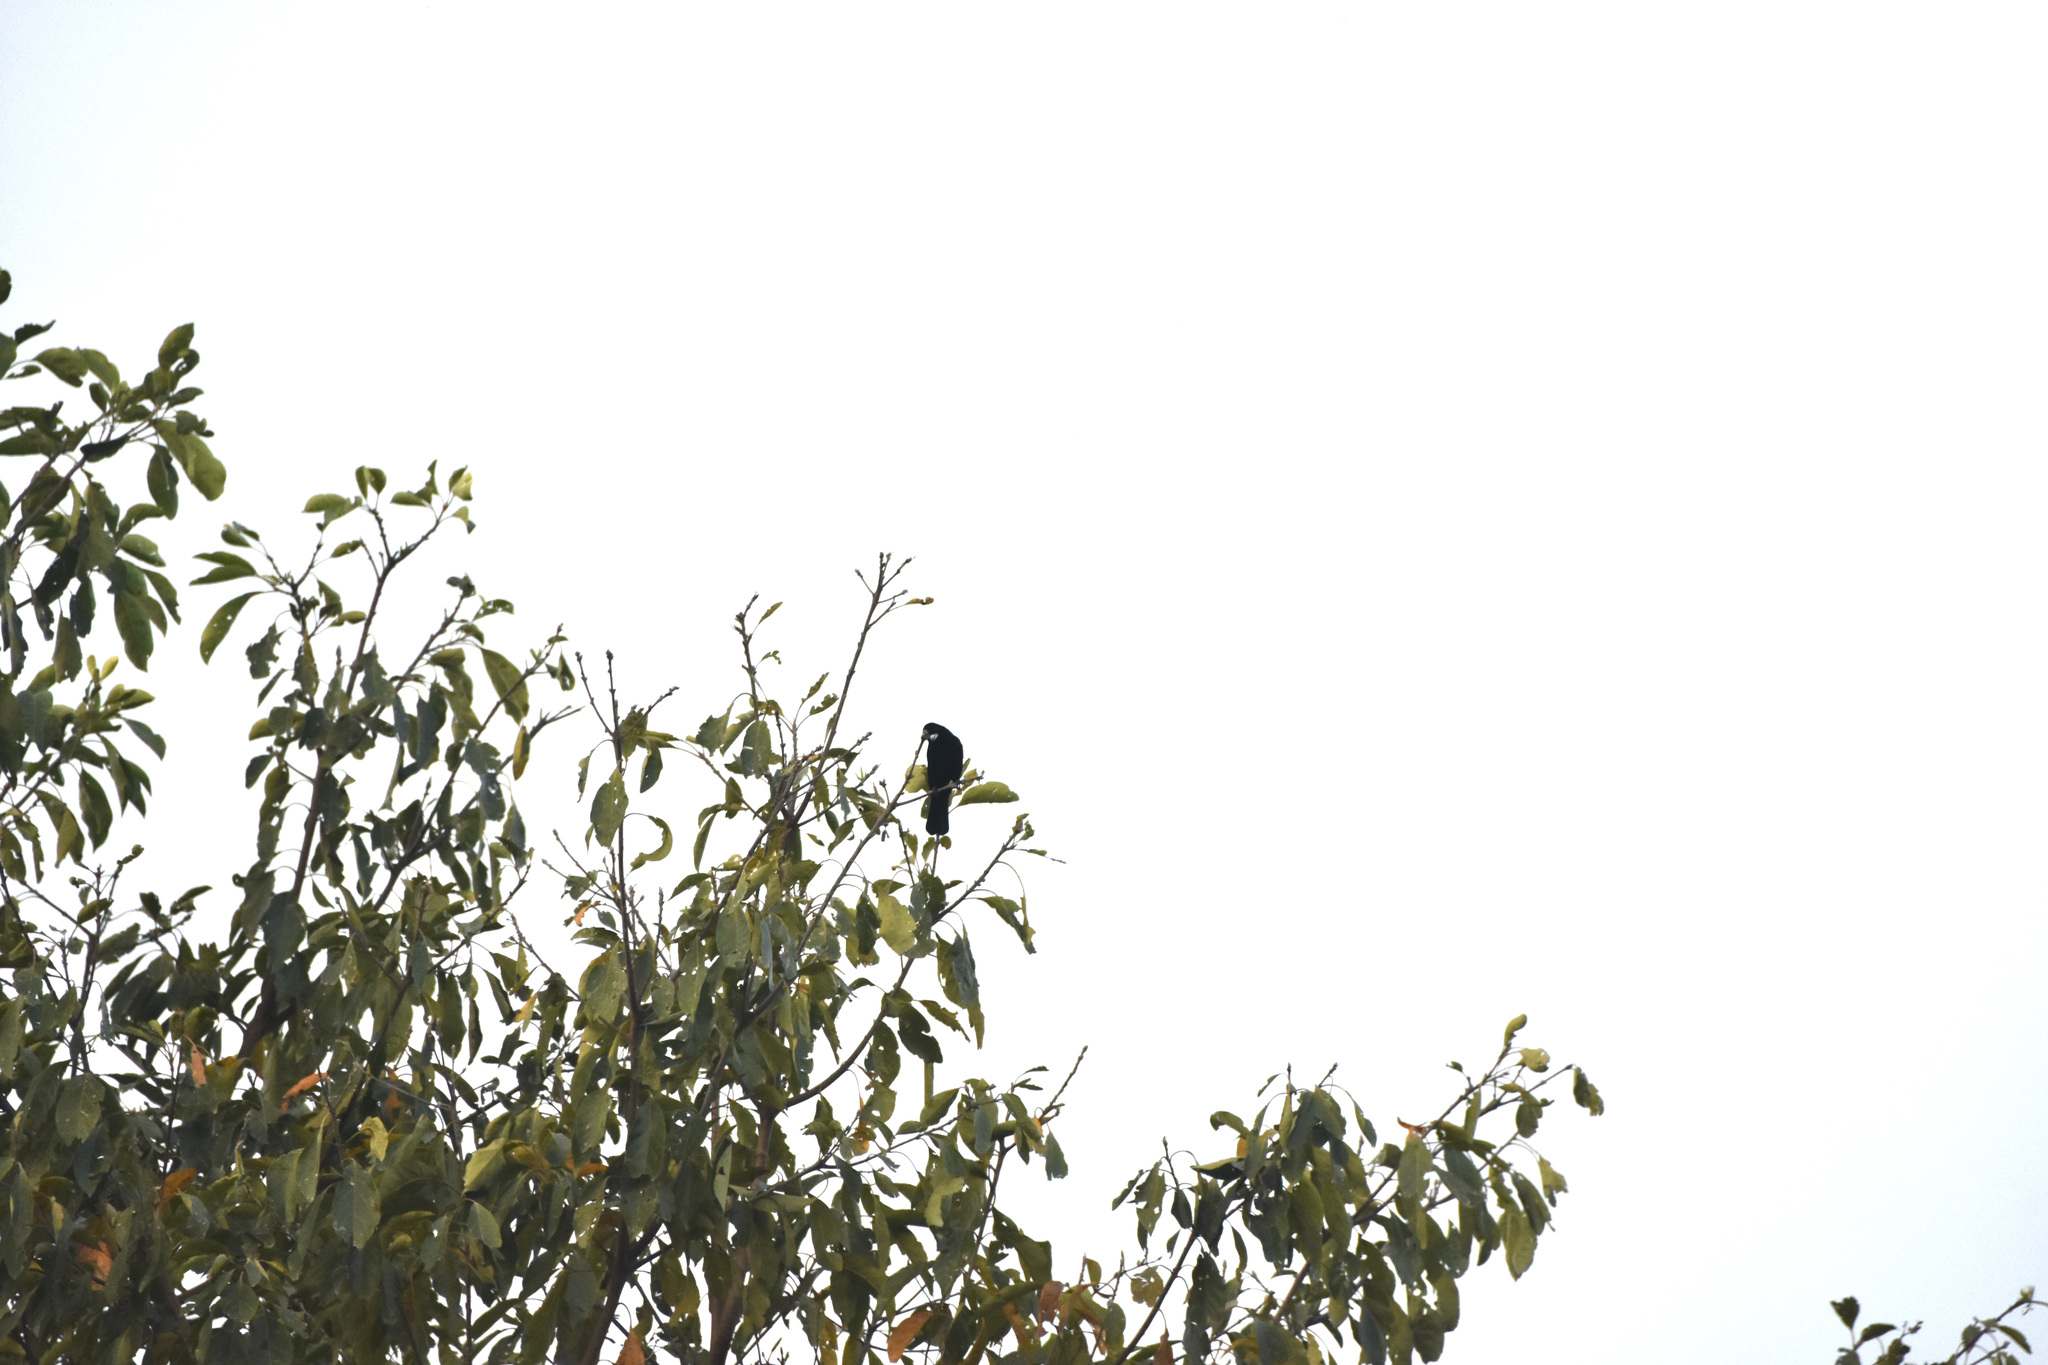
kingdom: Animalia
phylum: Chordata
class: Aves
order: Passeriformes
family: Thraupidae
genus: Ramphocelus
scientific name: Ramphocelus flammigerus
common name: Flame-rumped tanager
